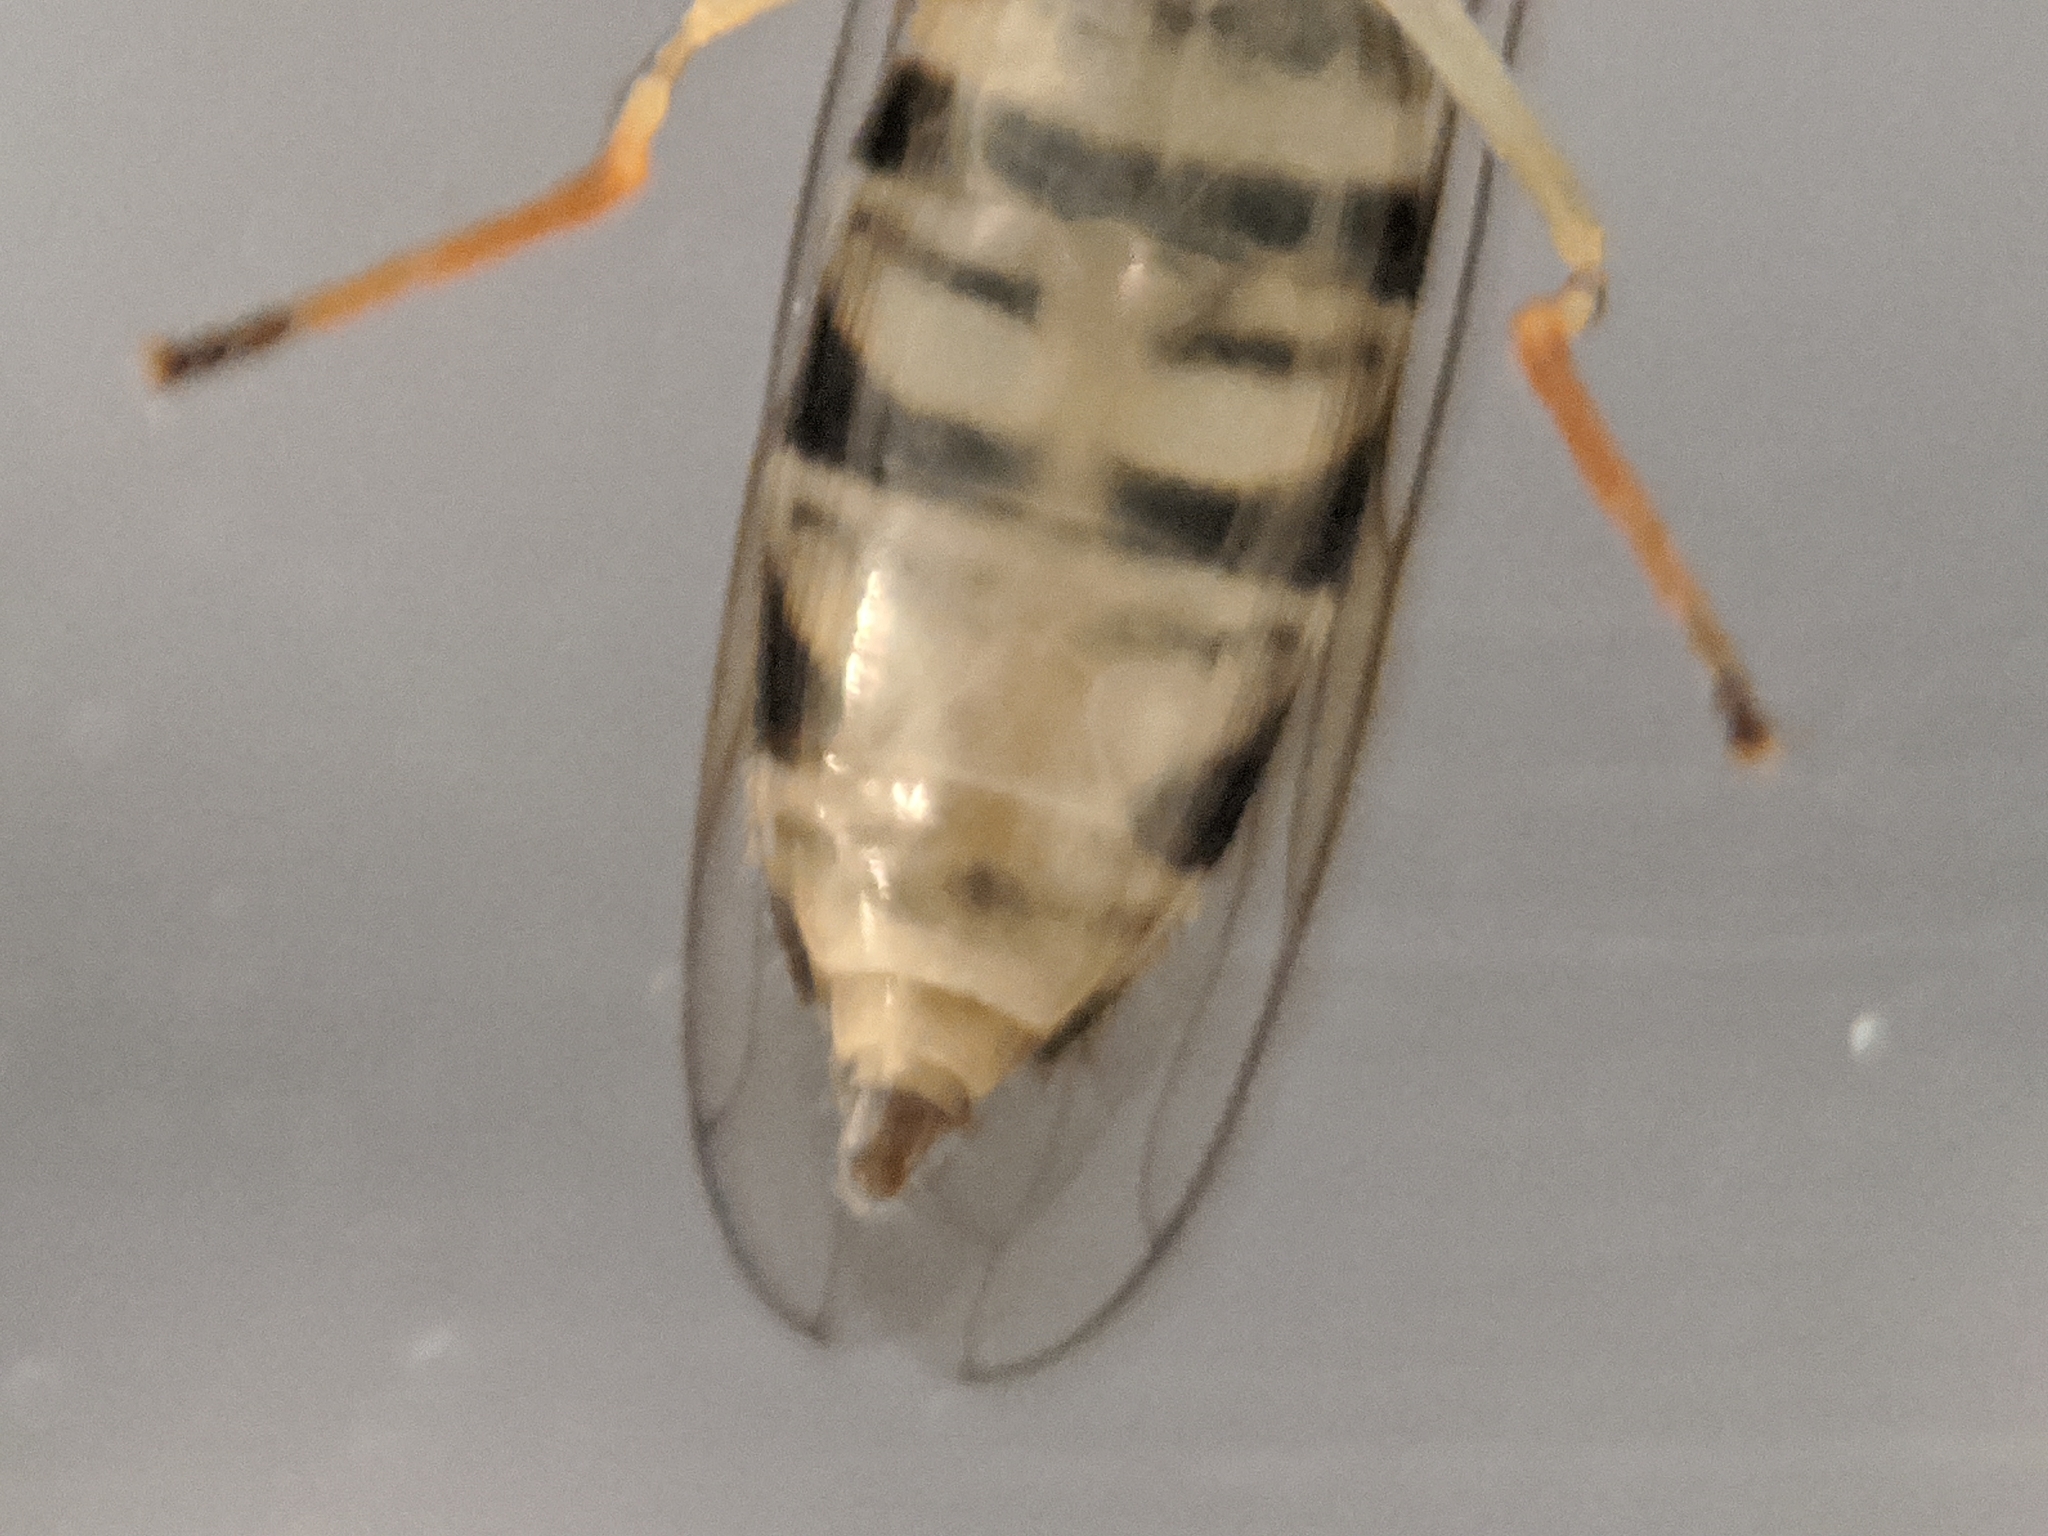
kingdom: Animalia
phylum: Arthropoda
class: Insecta
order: Diptera
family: Syrphidae
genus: Toxomerus
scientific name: Toxomerus politus
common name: Maize calligrapher
